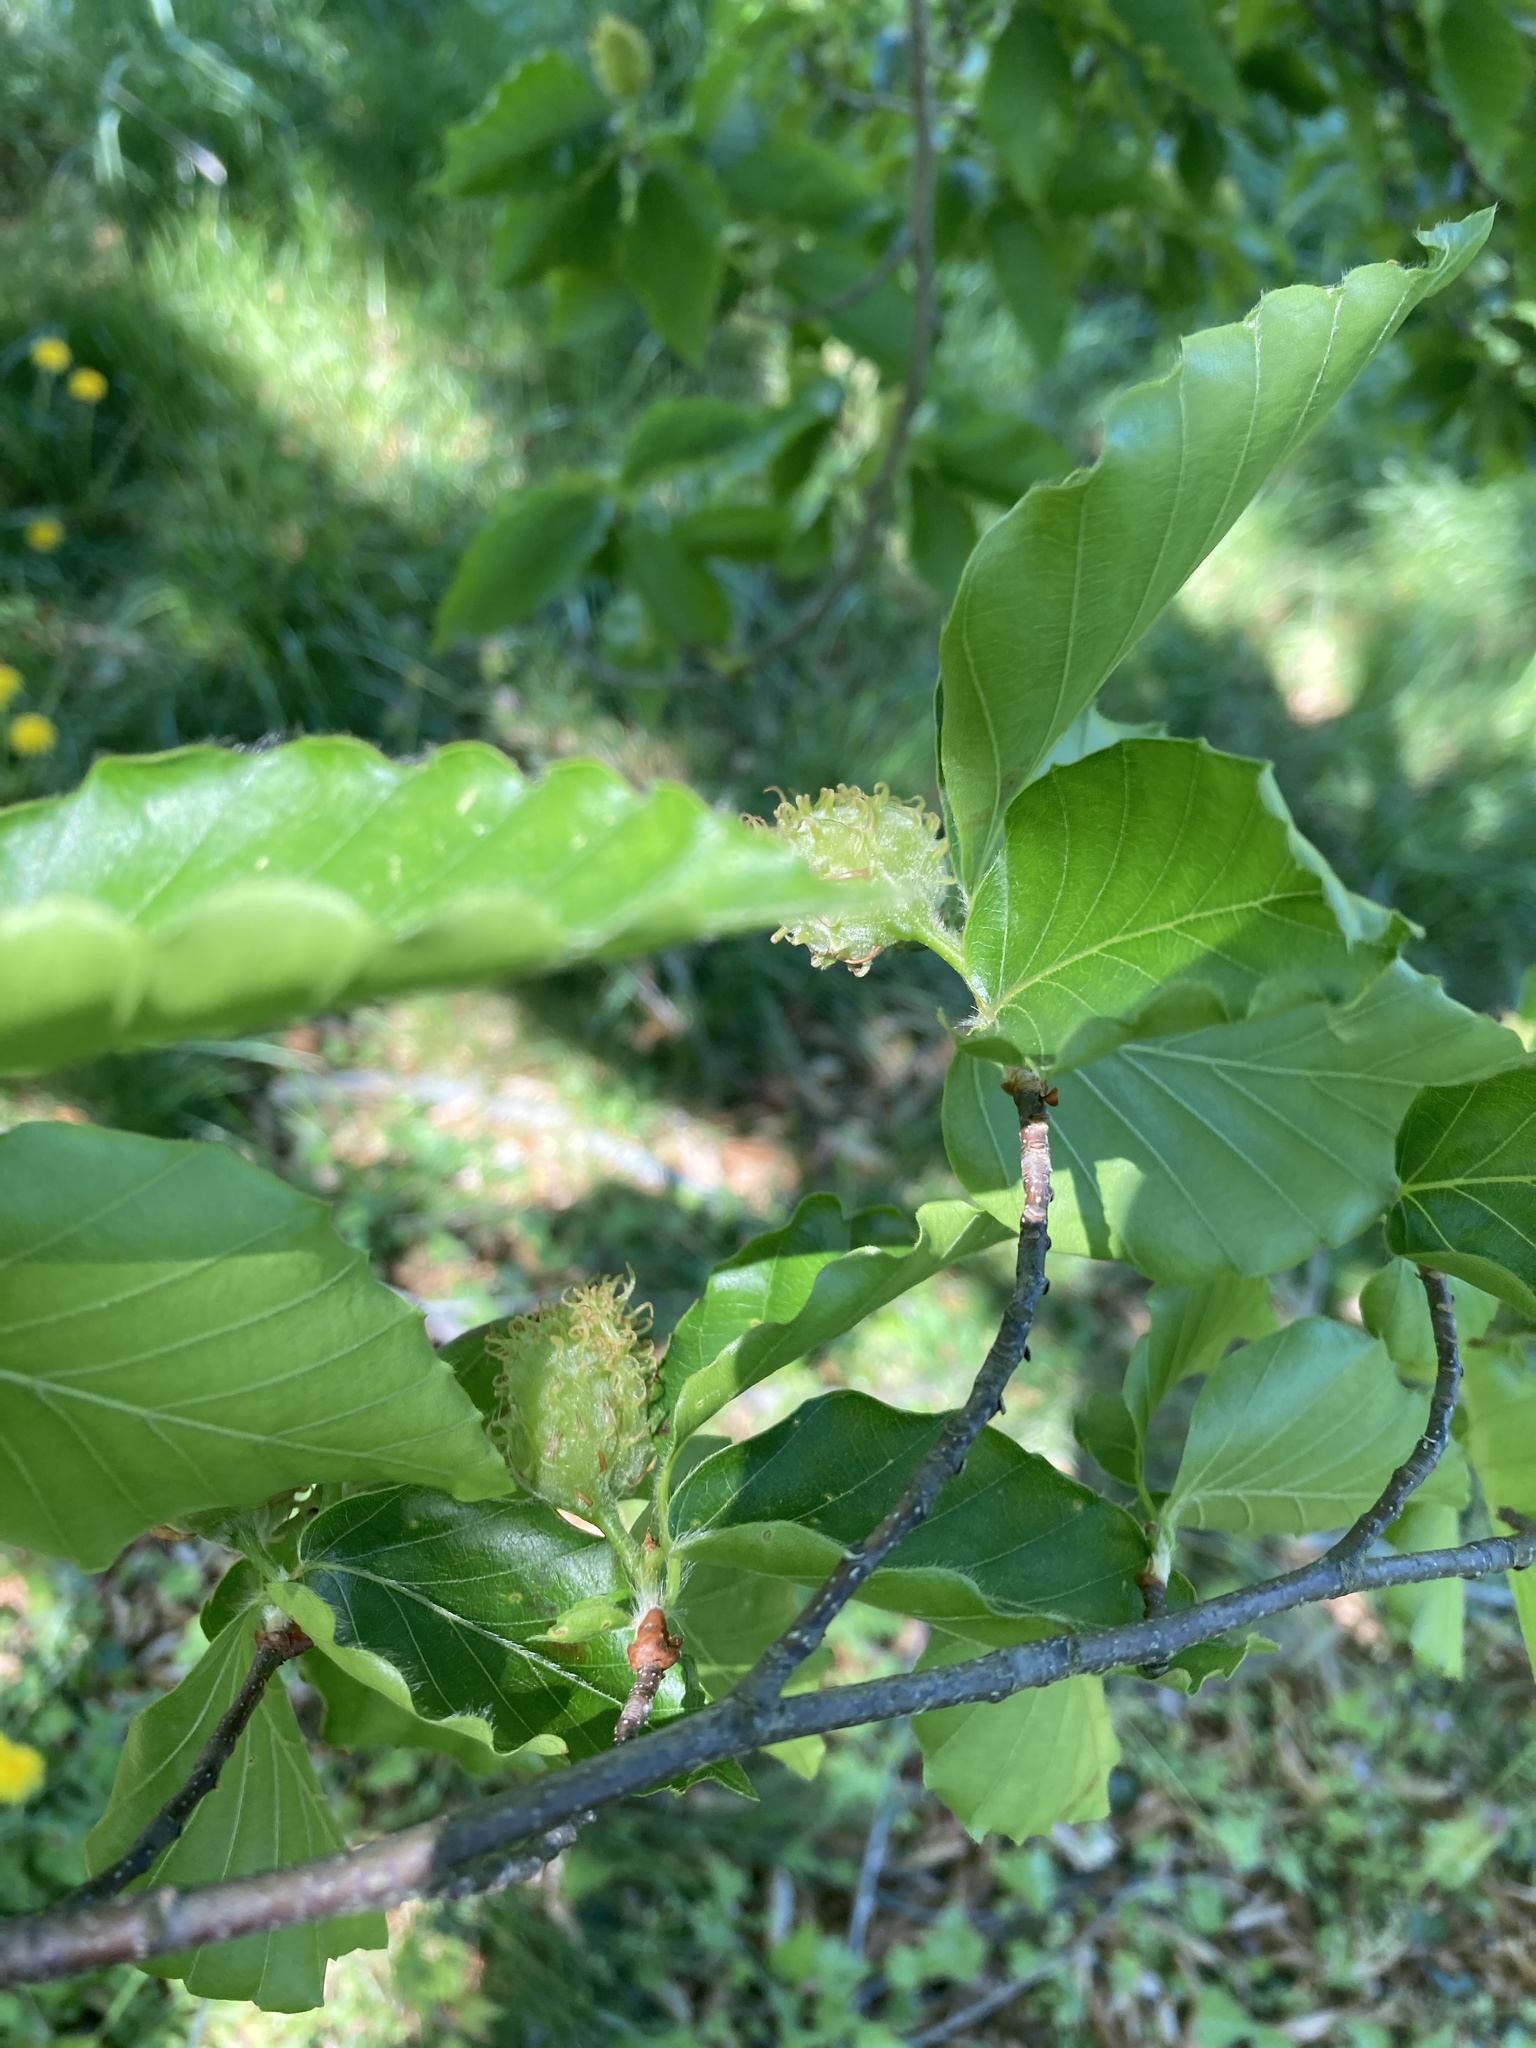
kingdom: Plantae
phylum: Tracheophyta
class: Magnoliopsida
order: Fagales
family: Fagaceae
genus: Fagus
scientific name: Fagus sylvatica
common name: Beech
